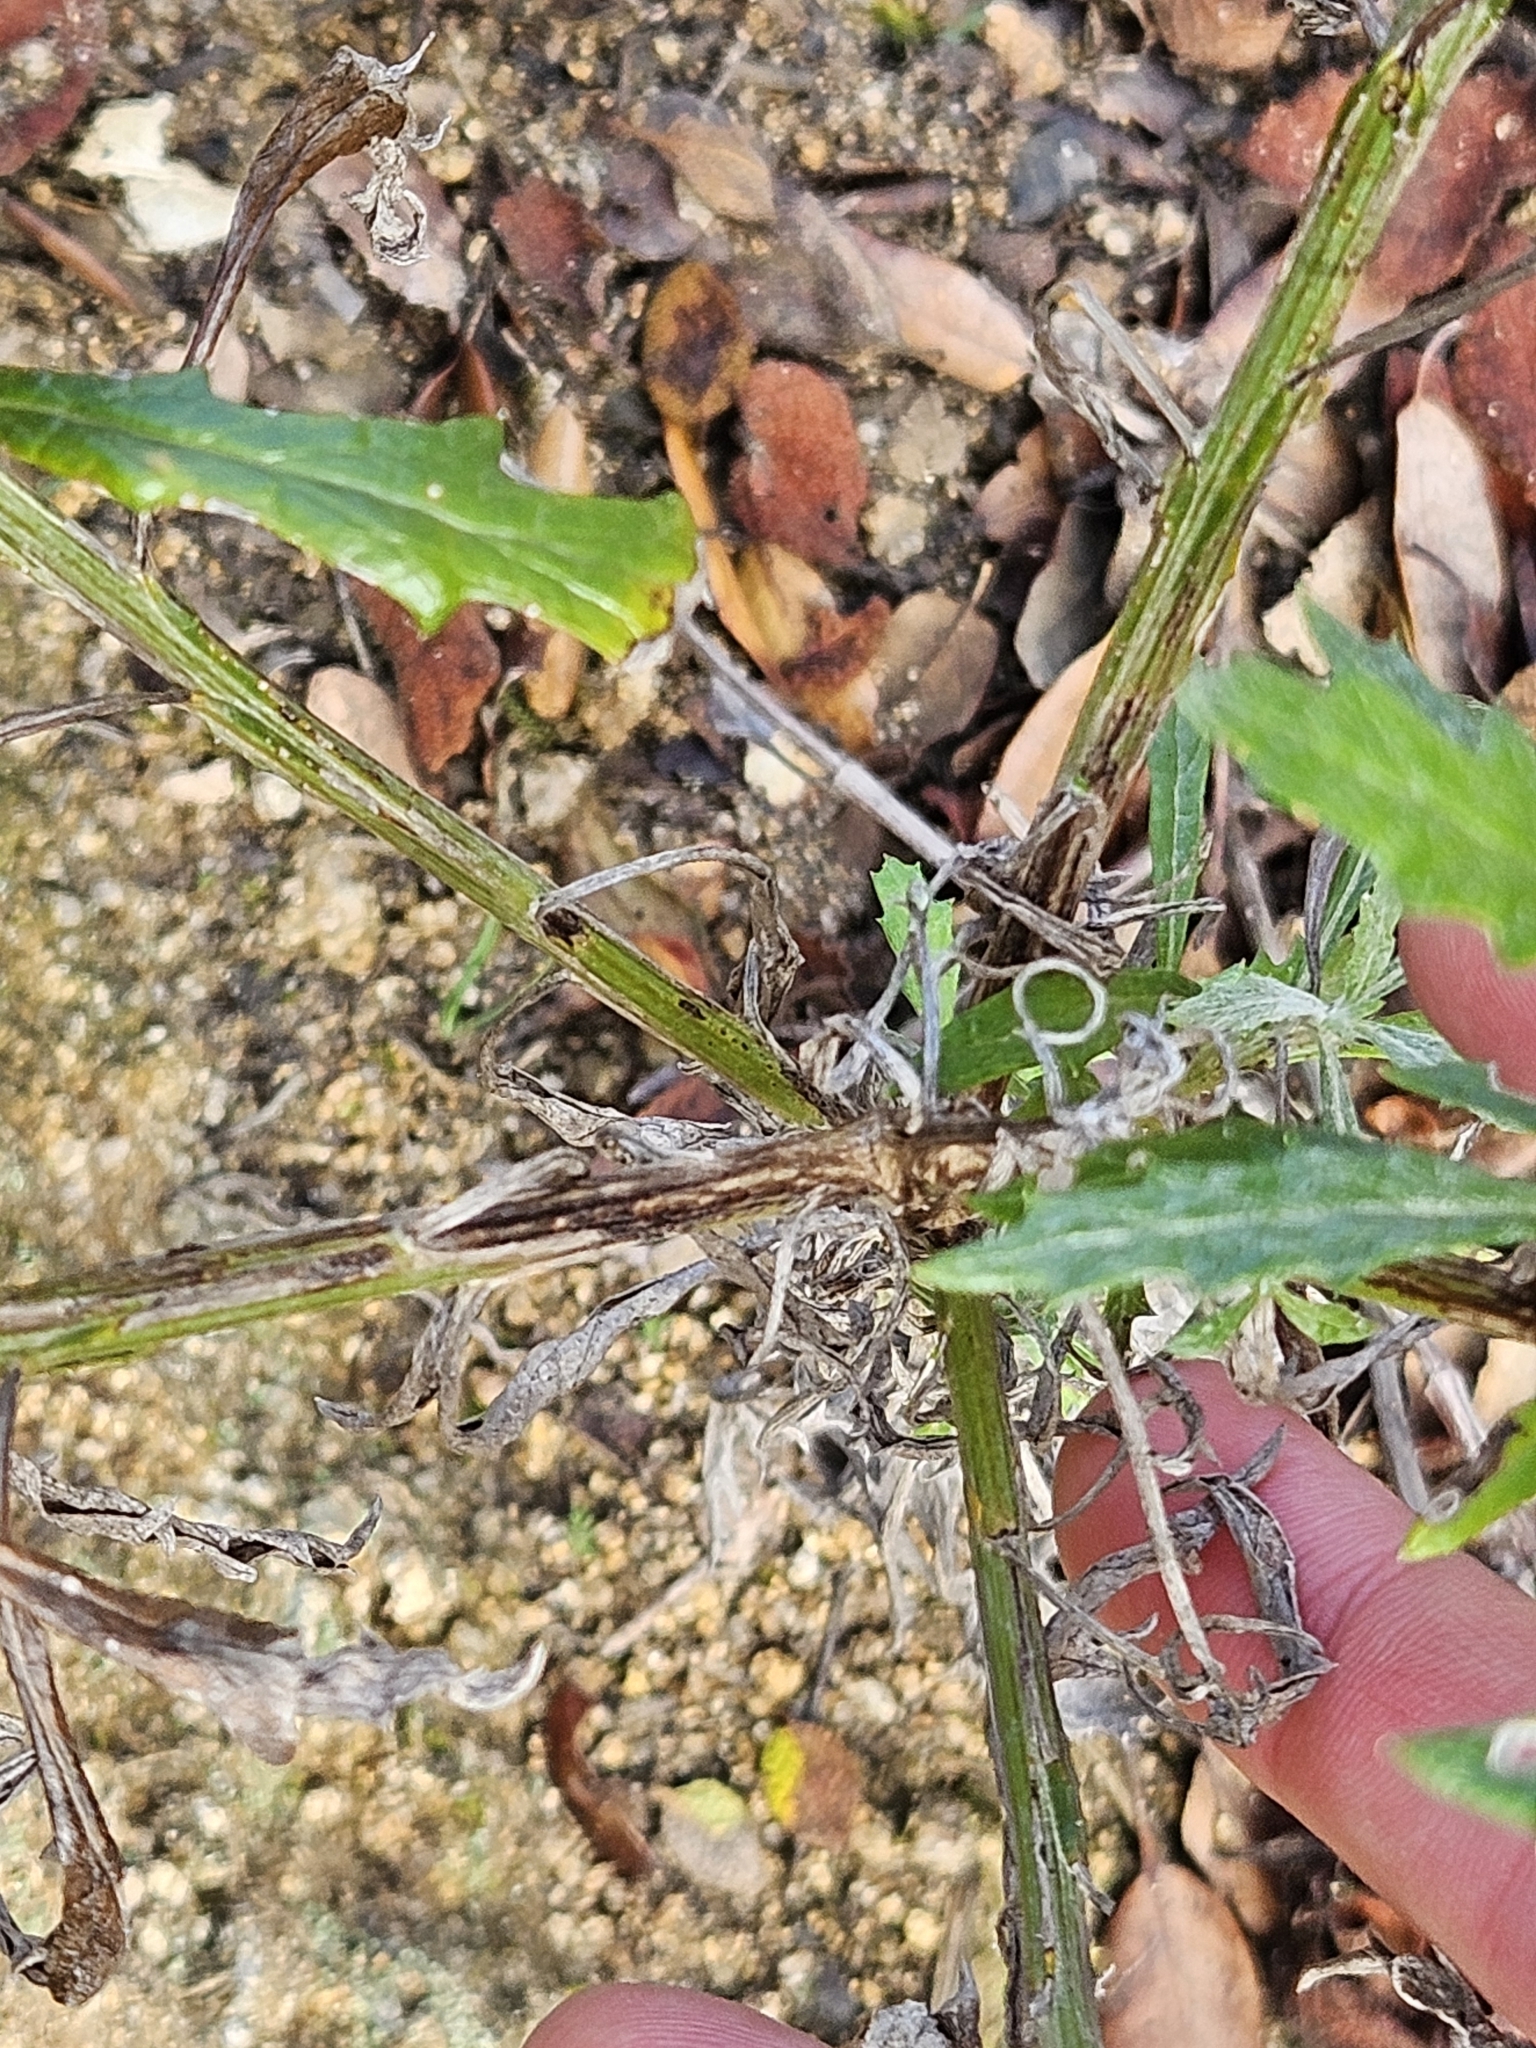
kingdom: Plantae
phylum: Tracheophyta
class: Magnoliopsida
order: Asterales
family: Asteraceae
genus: Senecio
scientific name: Senecio pterophorus
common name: Shoddy ragwort
